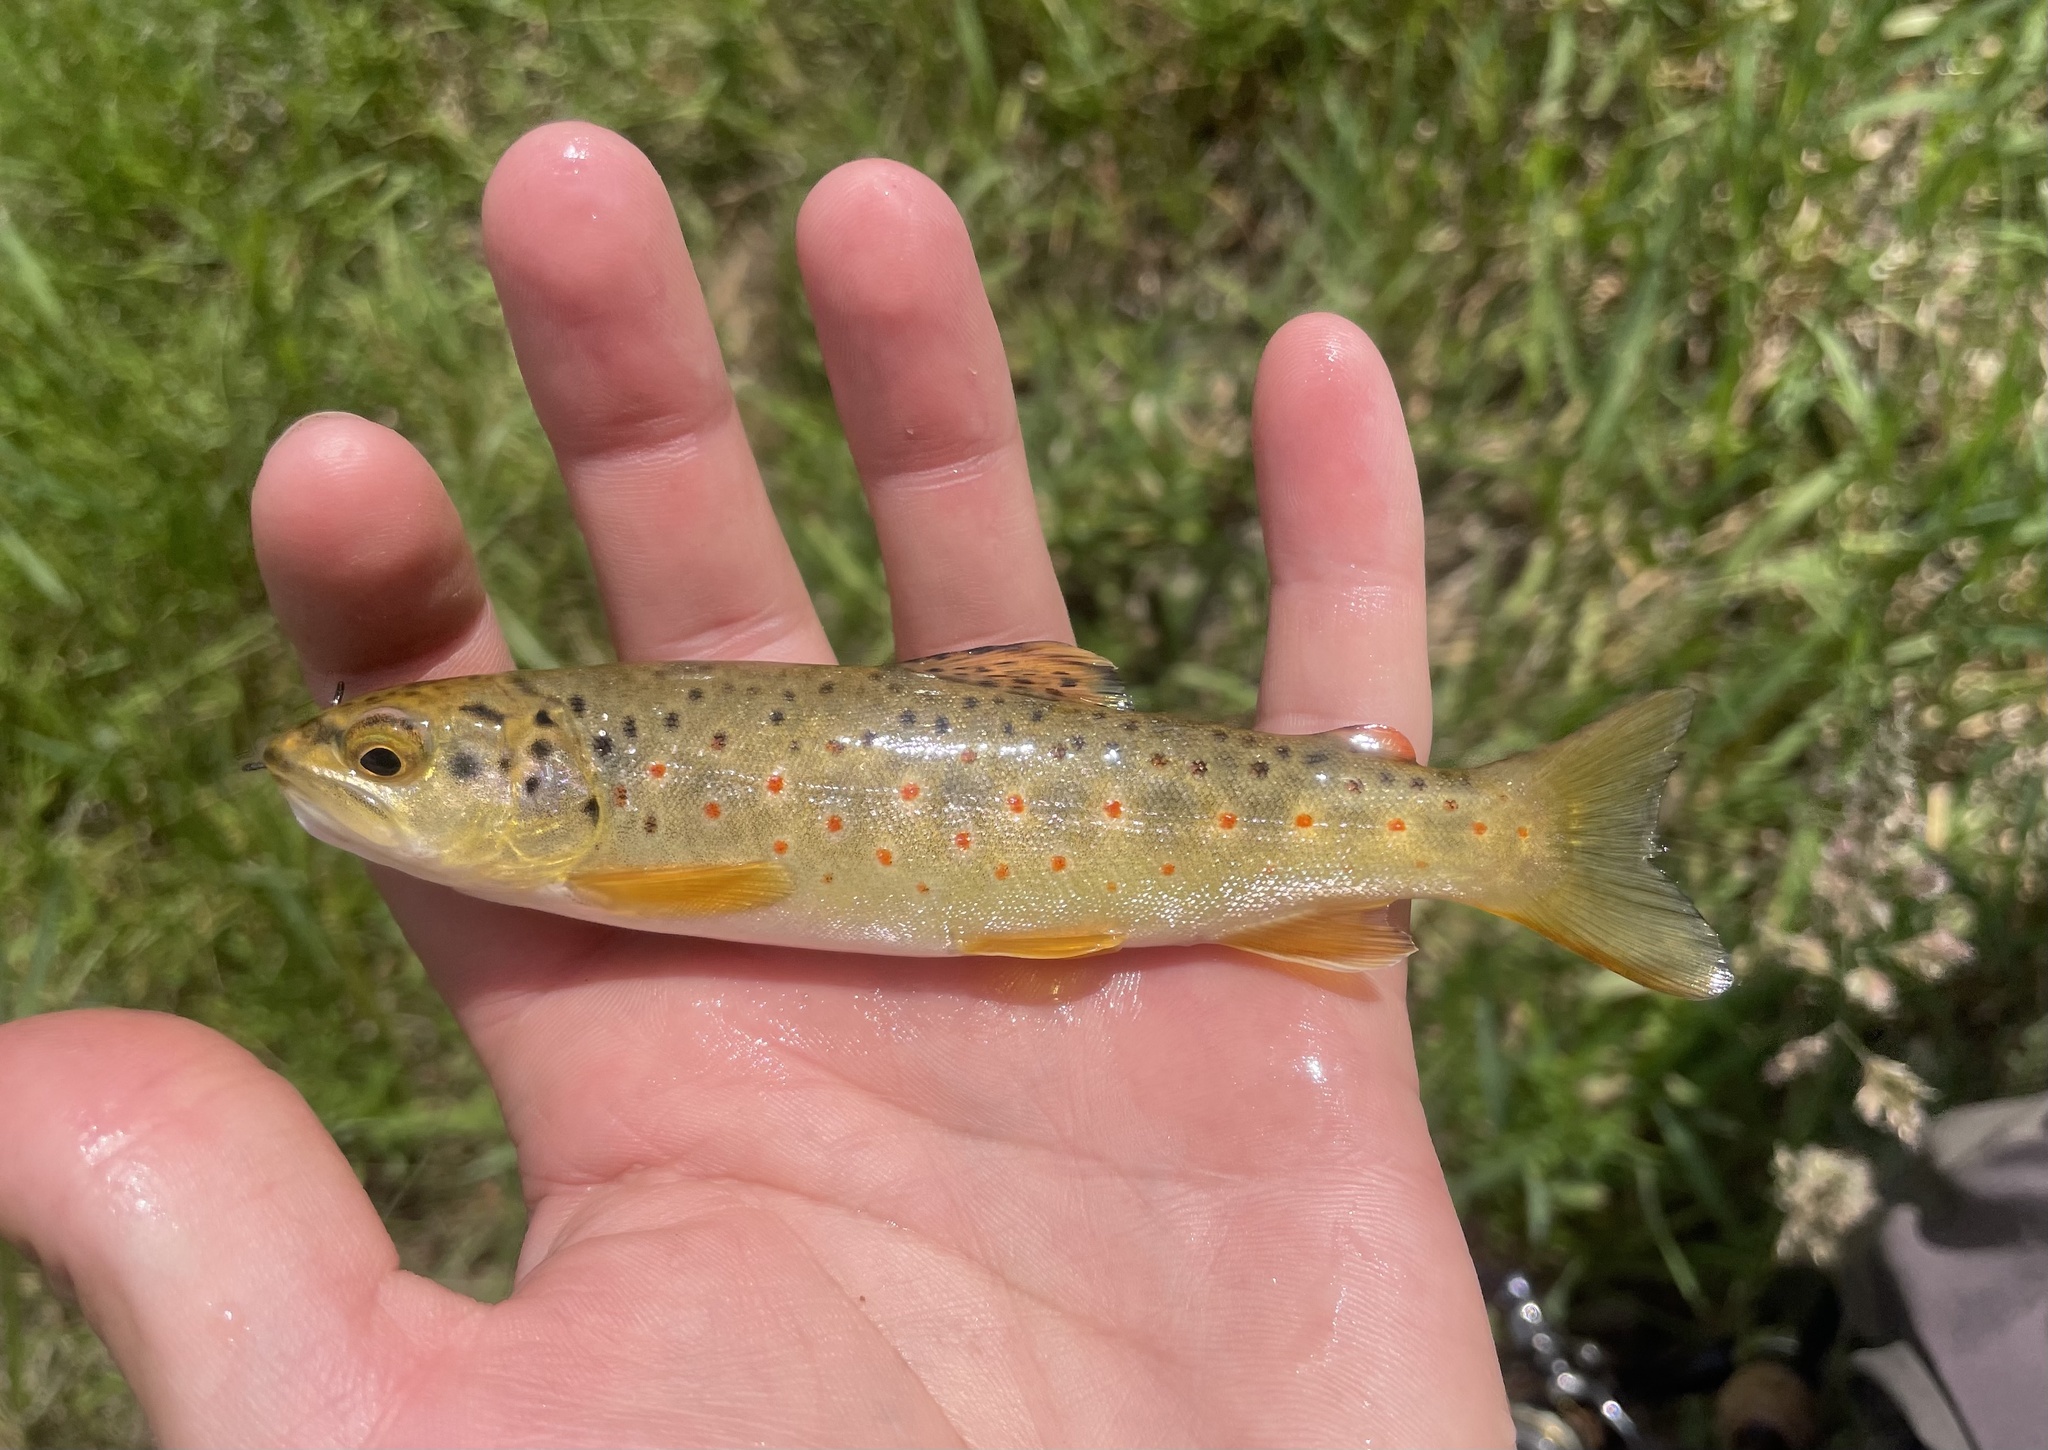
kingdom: Animalia
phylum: Chordata
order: Salmoniformes
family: Salmonidae
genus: Salmo
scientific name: Salmo trutta
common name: Brown trout
